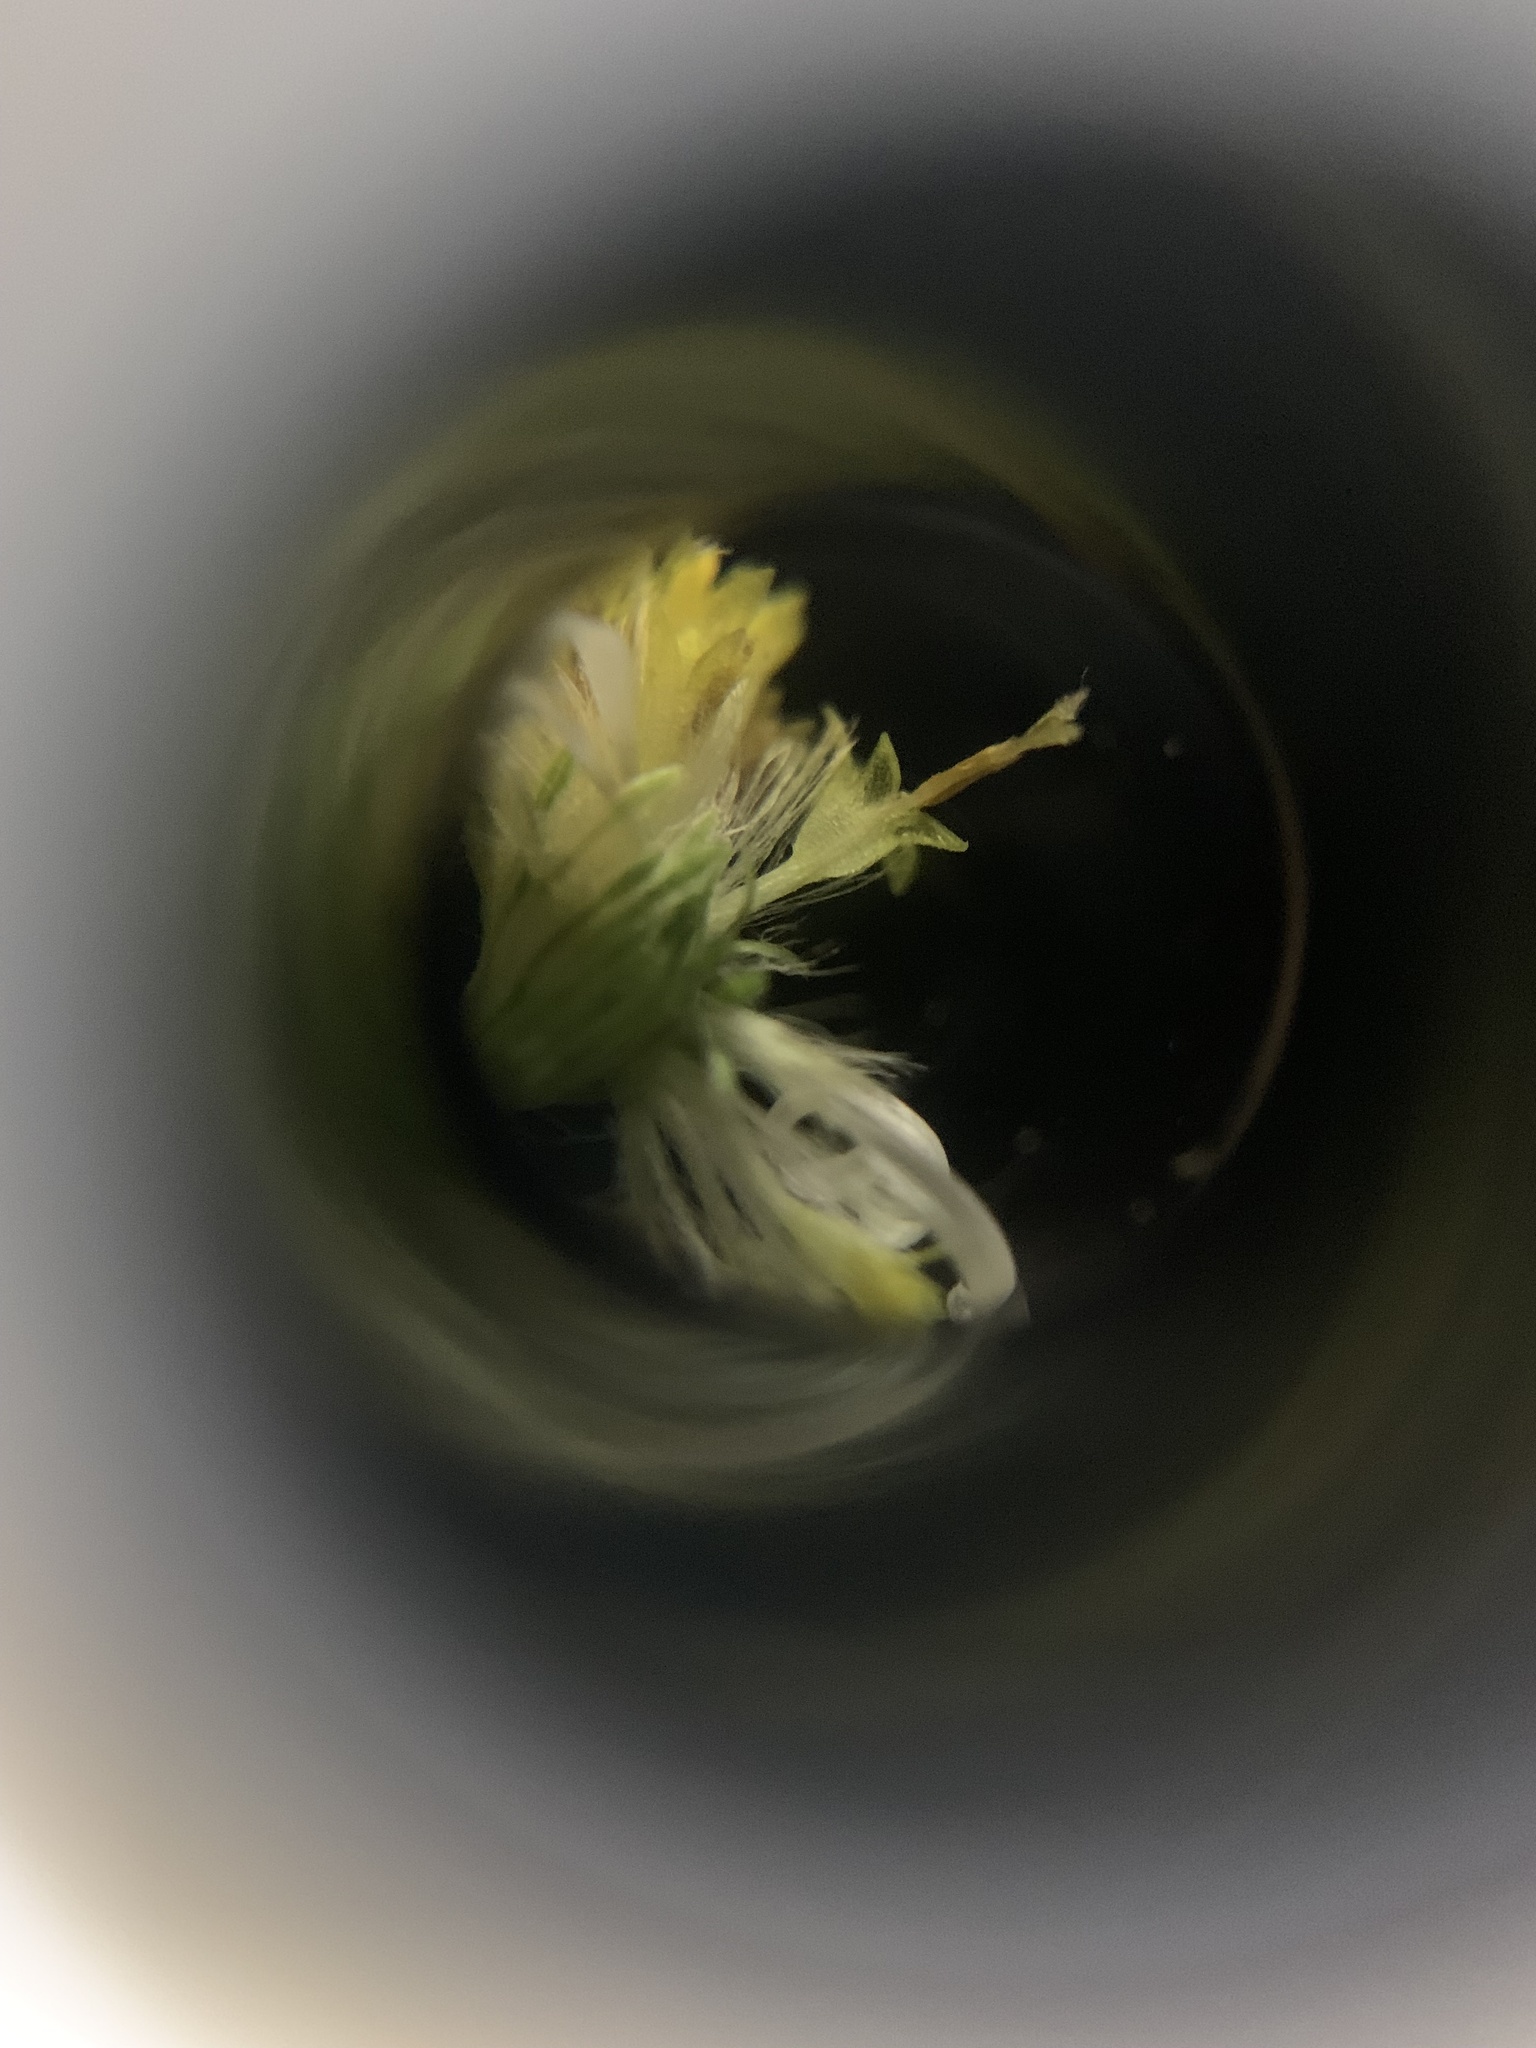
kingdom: Plantae
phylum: Tracheophyta
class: Magnoliopsida
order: Asterales
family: Asteraceae
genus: Symphyotrichum
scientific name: Symphyotrichum ontarionis
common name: Bottomland aster
